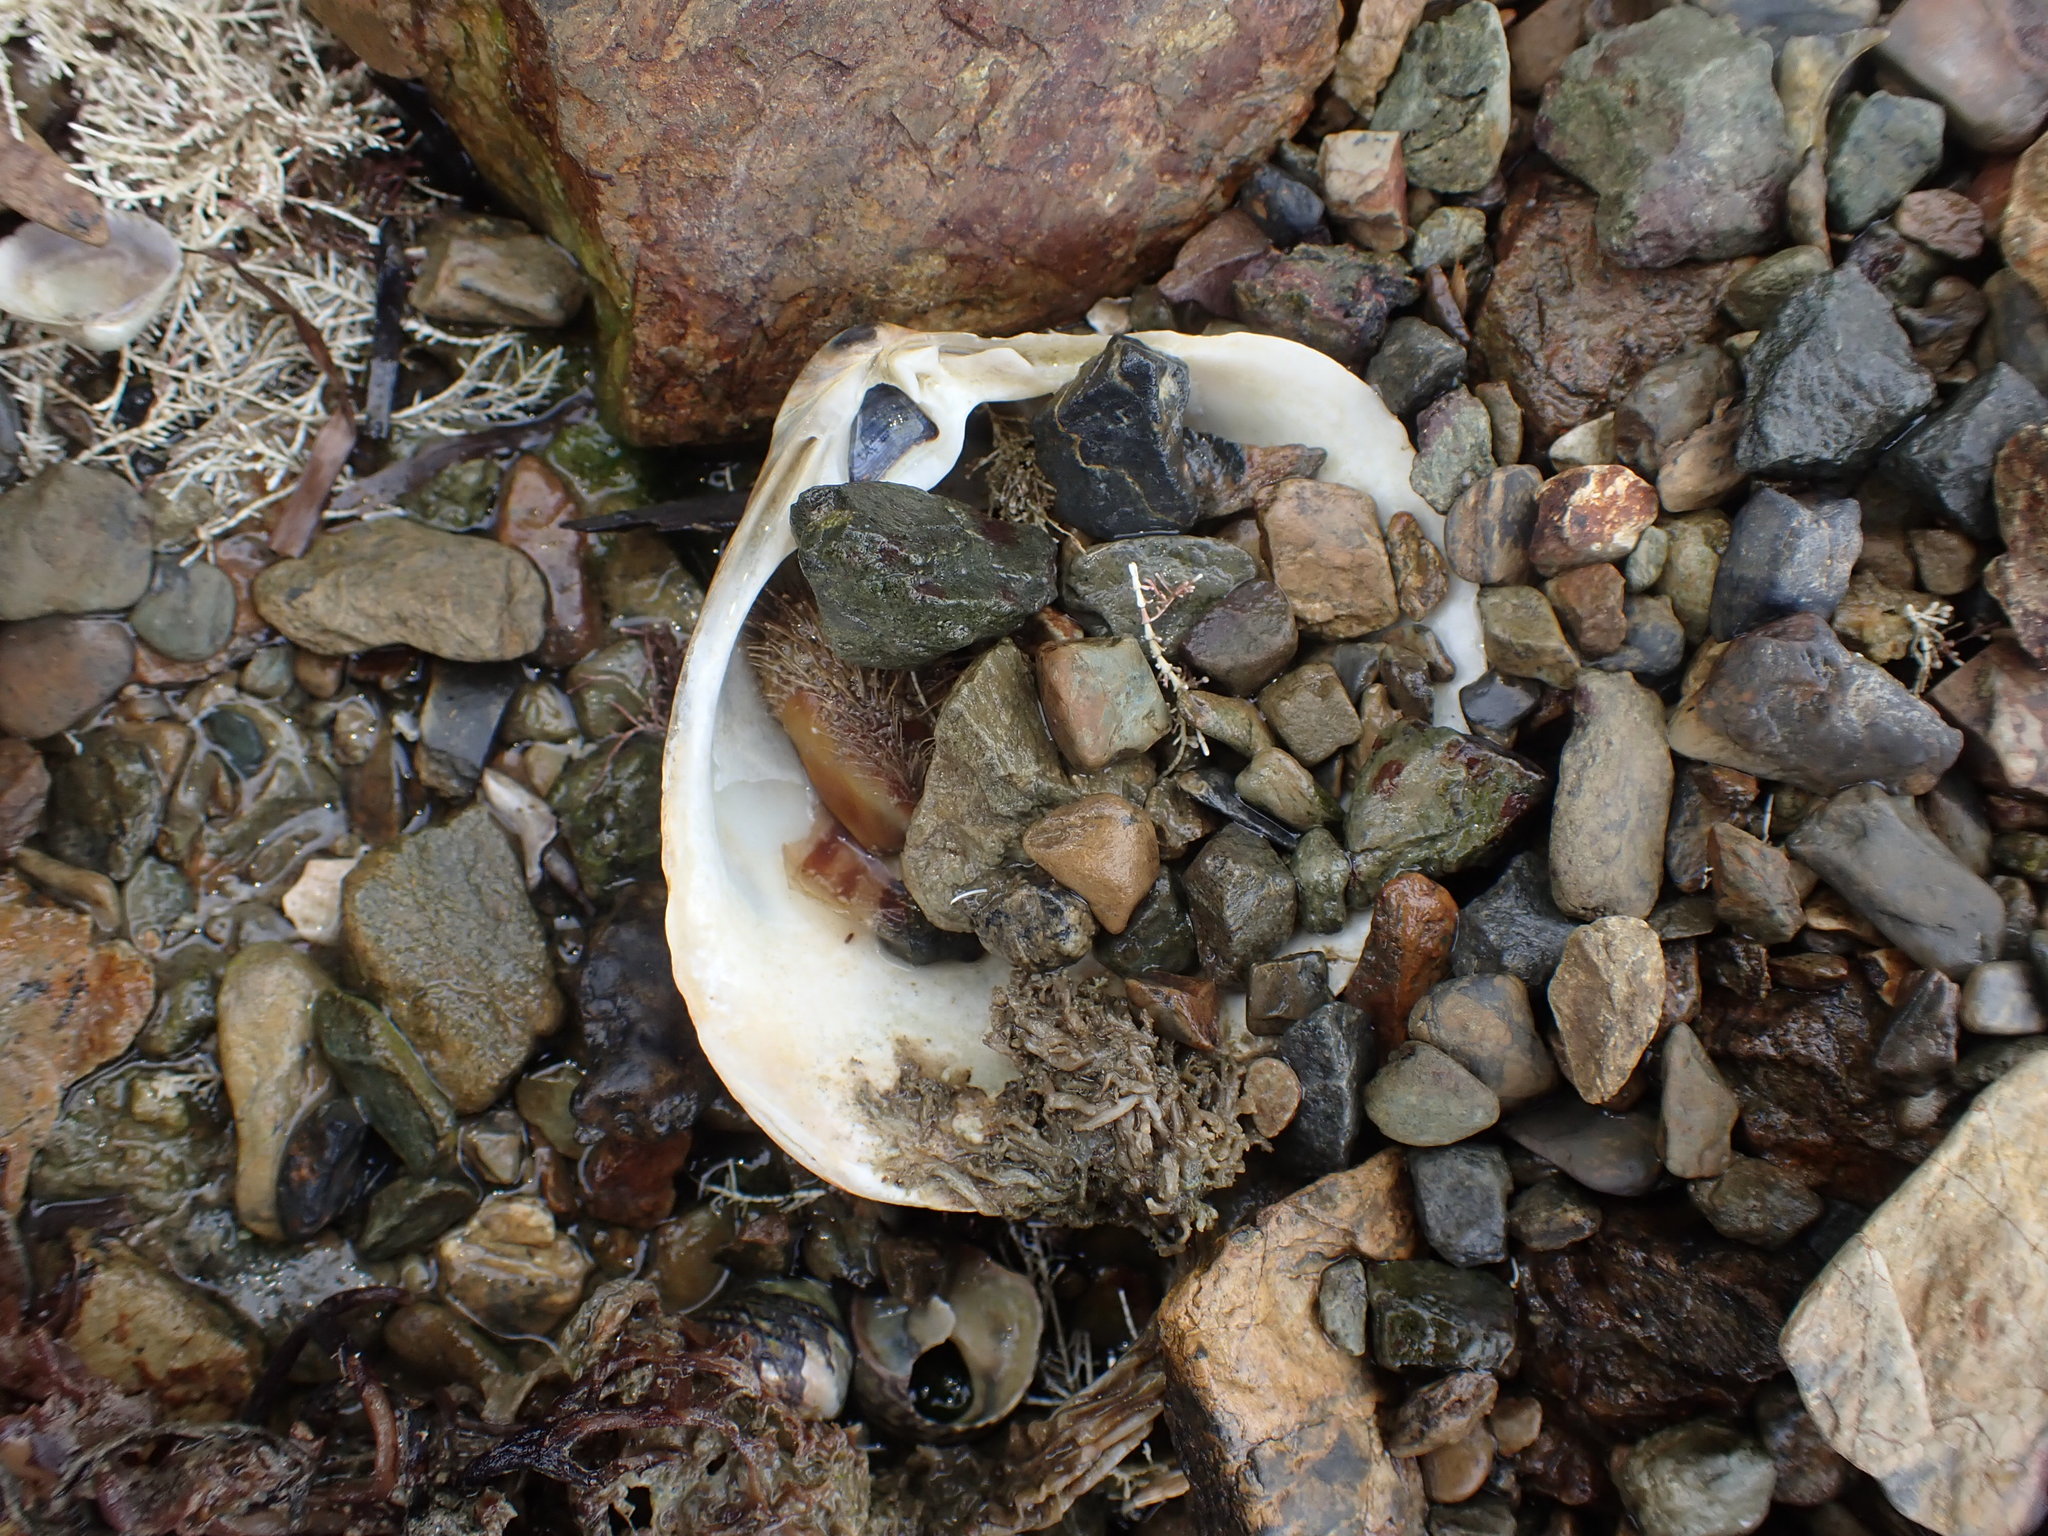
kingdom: Animalia
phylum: Mollusca
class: Bivalvia
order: Mytilida
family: Mytilidae
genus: Modiolus
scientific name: Modiolus areolatus
